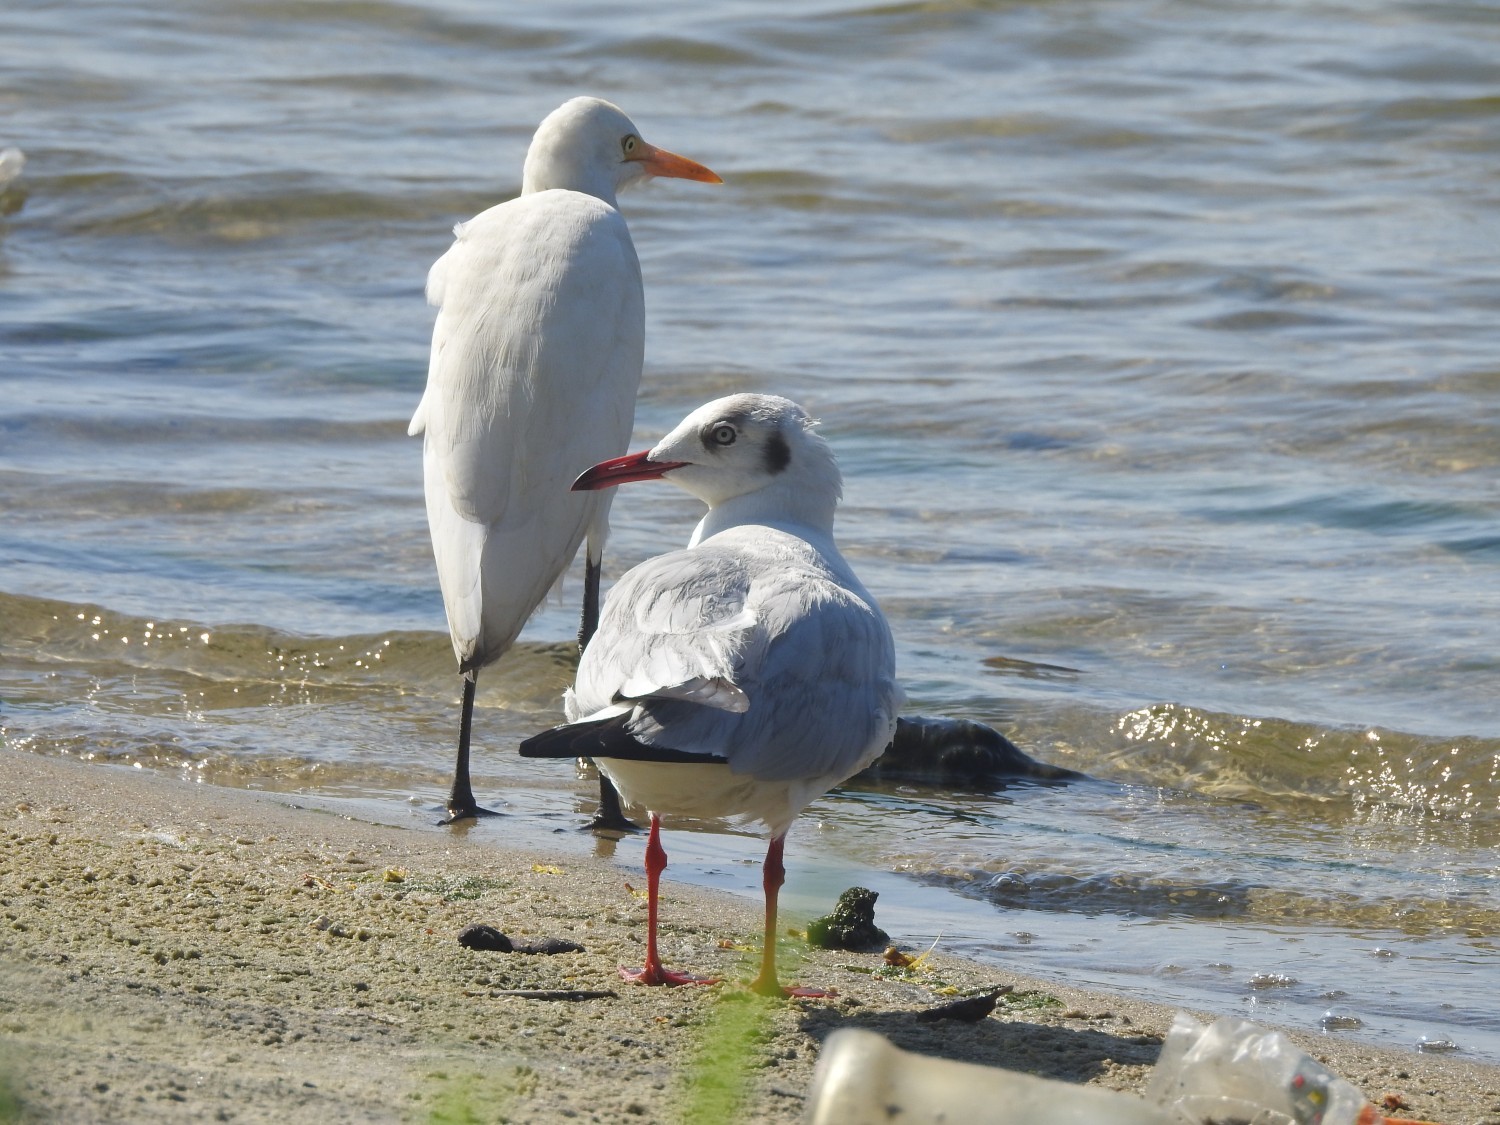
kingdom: Animalia
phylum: Chordata
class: Aves
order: Charadriiformes
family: Laridae
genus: Chroicocephalus
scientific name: Chroicocephalus ridibundus
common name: Black-headed gull
